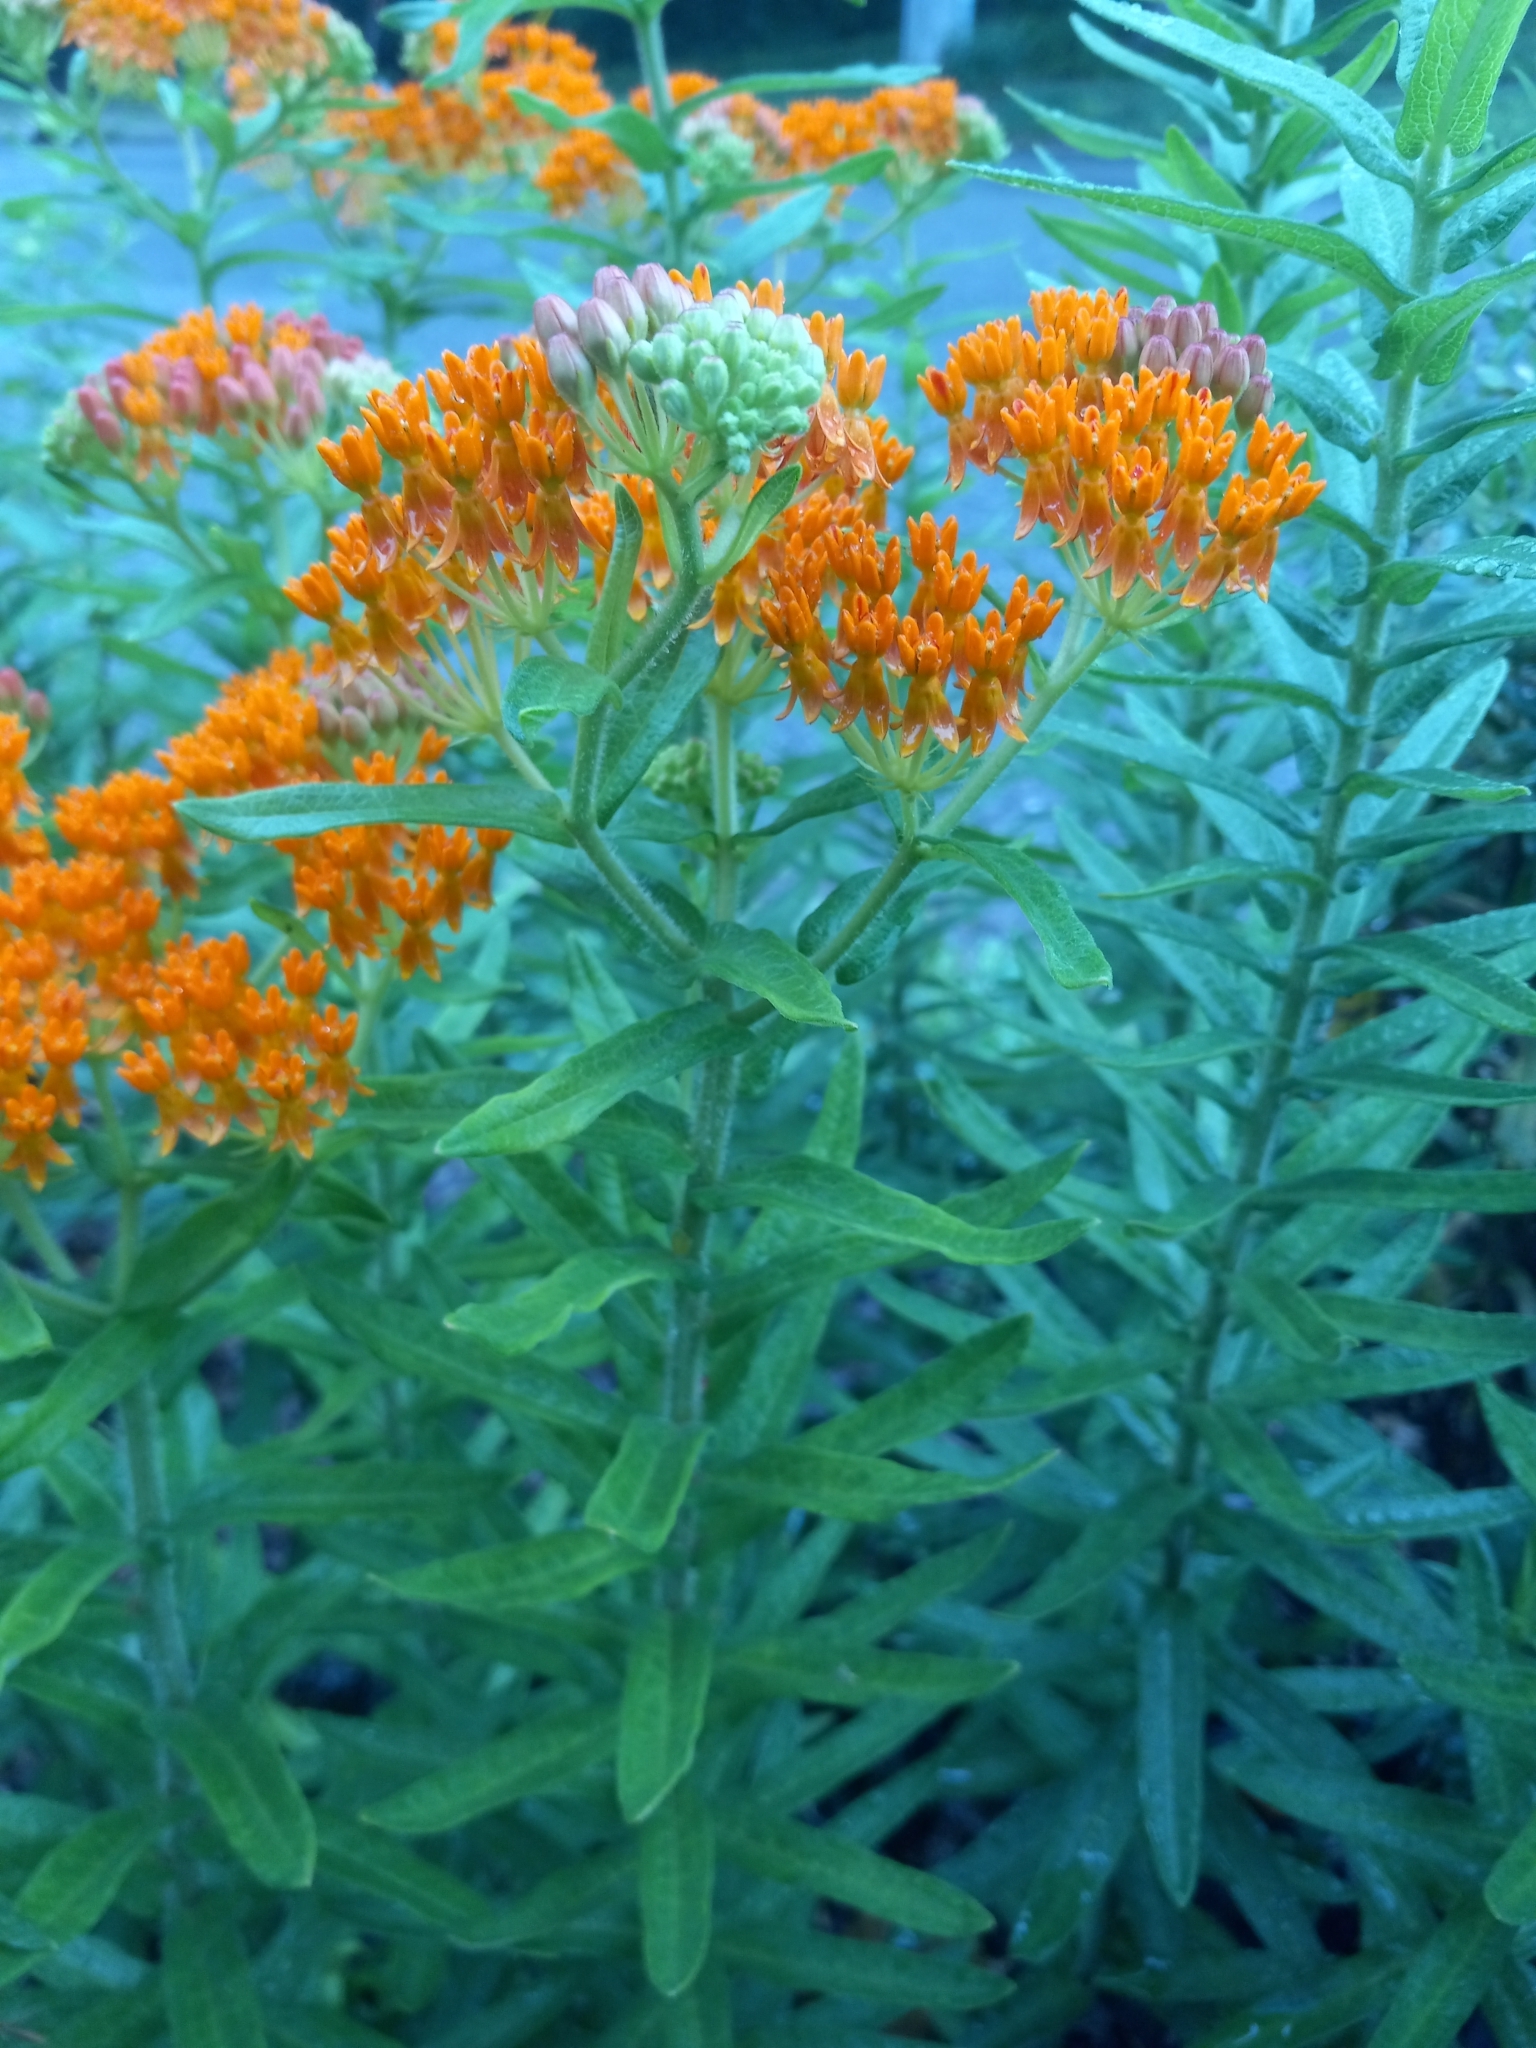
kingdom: Plantae
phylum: Tracheophyta
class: Magnoliopsida
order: Gentianales
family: Apocynaceae
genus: Asclepias
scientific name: Asclepias tuberosa
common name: Butterfly milkweed
